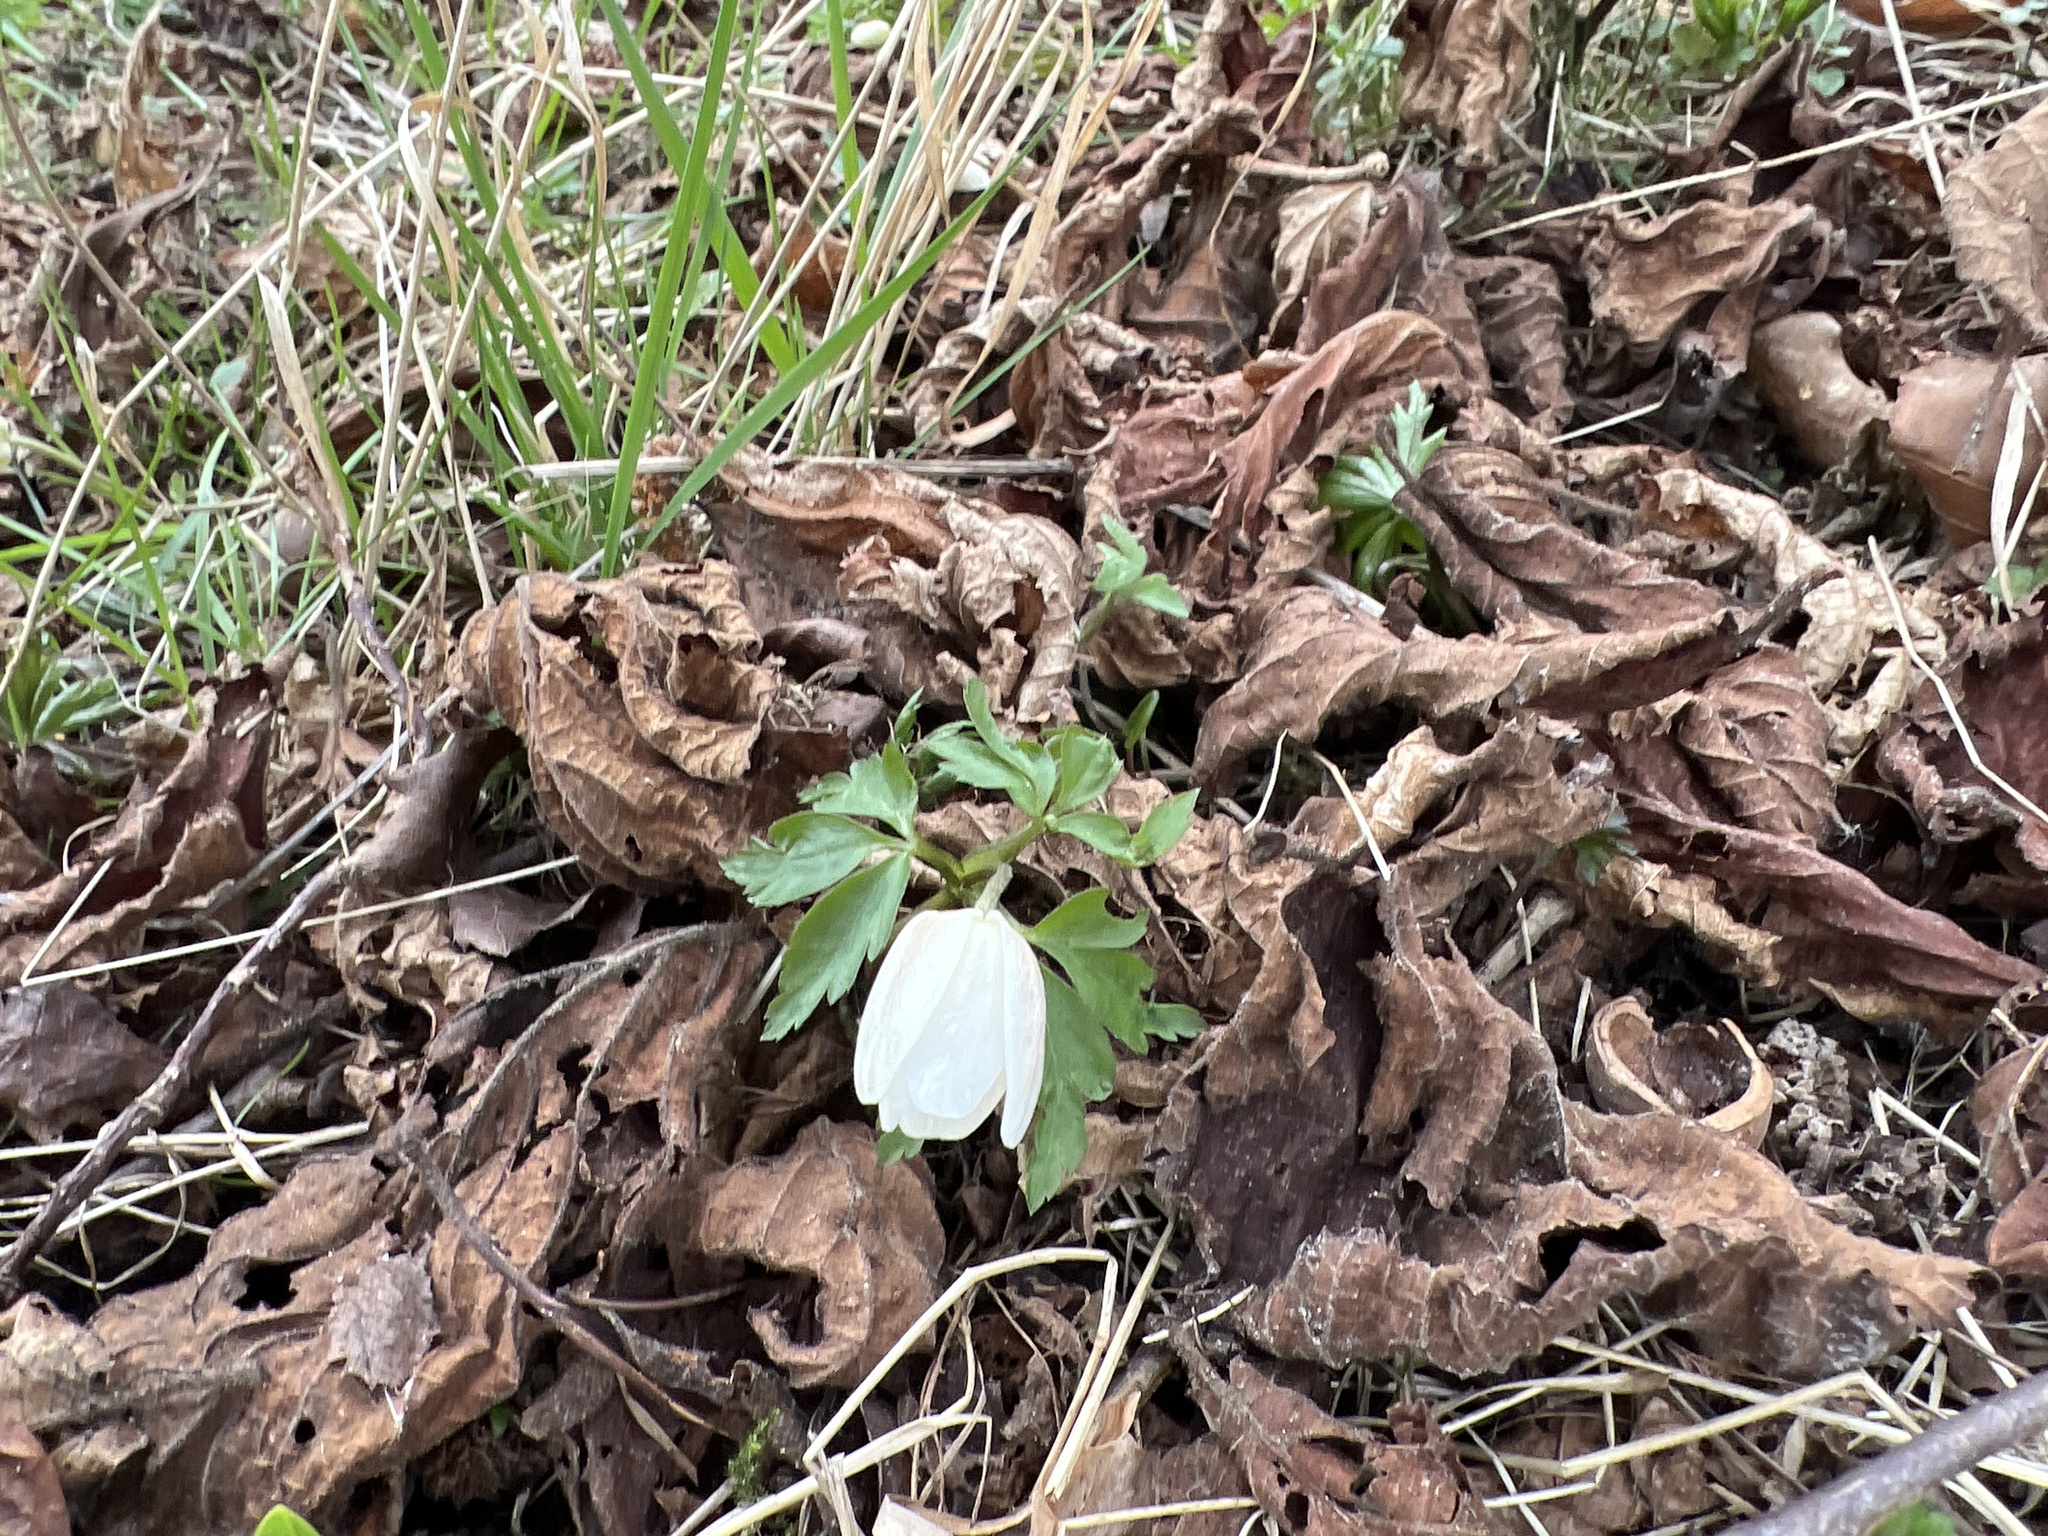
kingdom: Plantae
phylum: Tracheophyta
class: Magnoliopsida
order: Ranunculales
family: Ranunculaceae
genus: Anemone
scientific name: Anemone nemorosa
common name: Wood anemone
